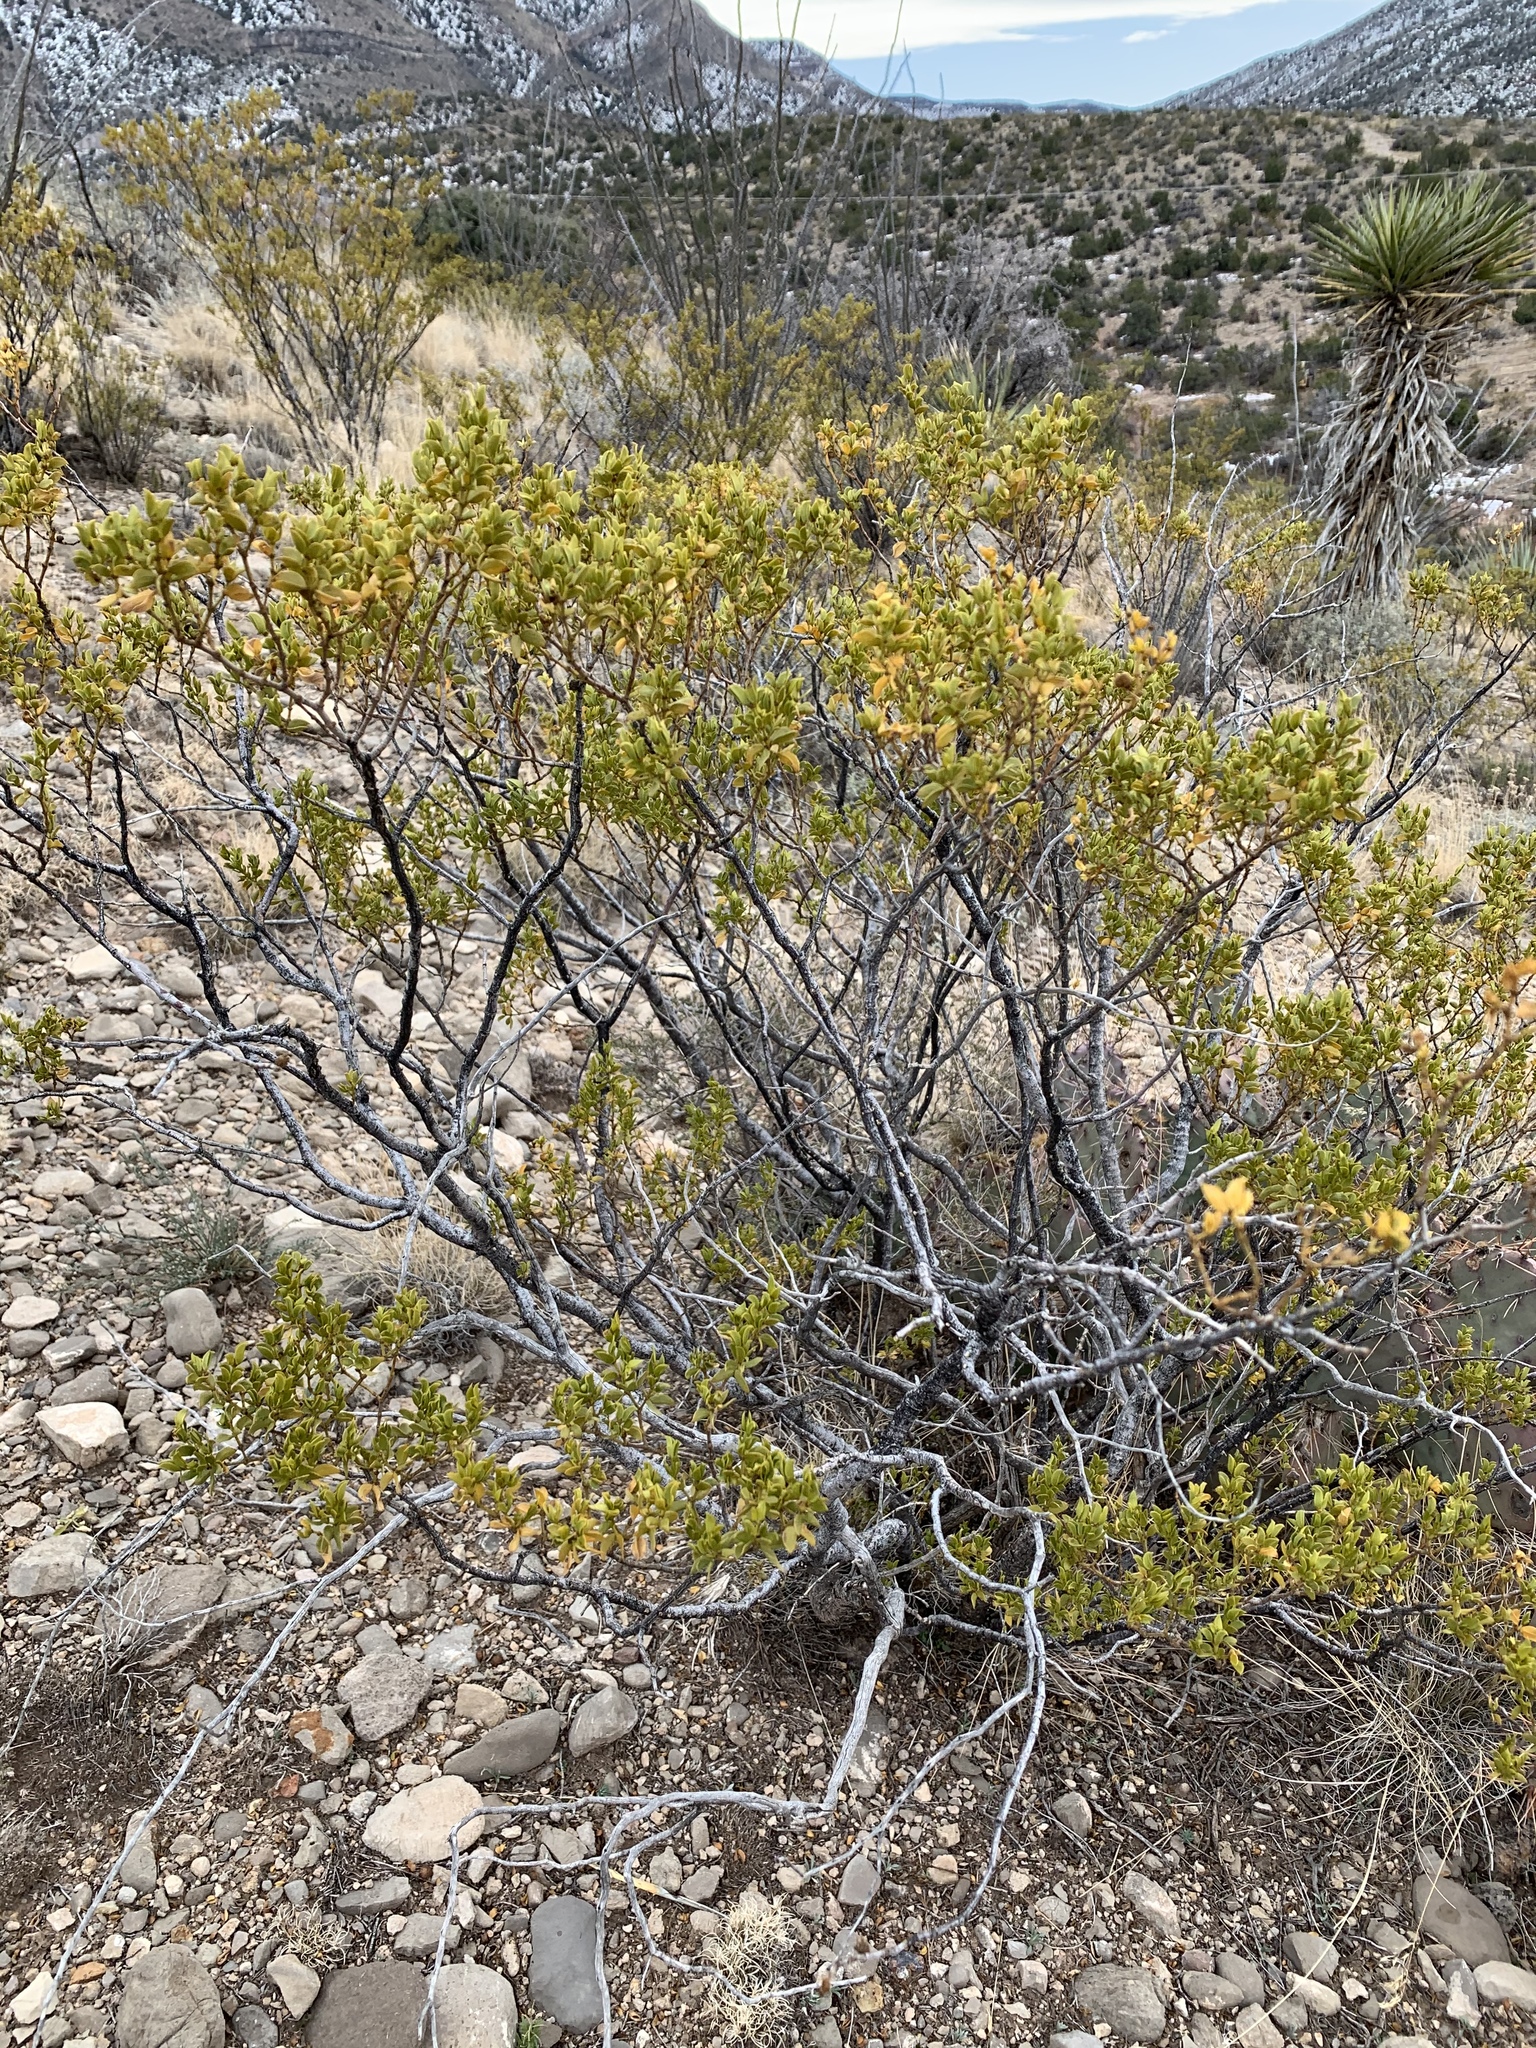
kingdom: Plantae
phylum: Tracheophyta
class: Magnoliopsida
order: Zygophyllales
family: Zygophyllaceae
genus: Larrea
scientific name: Larrea tridentata
